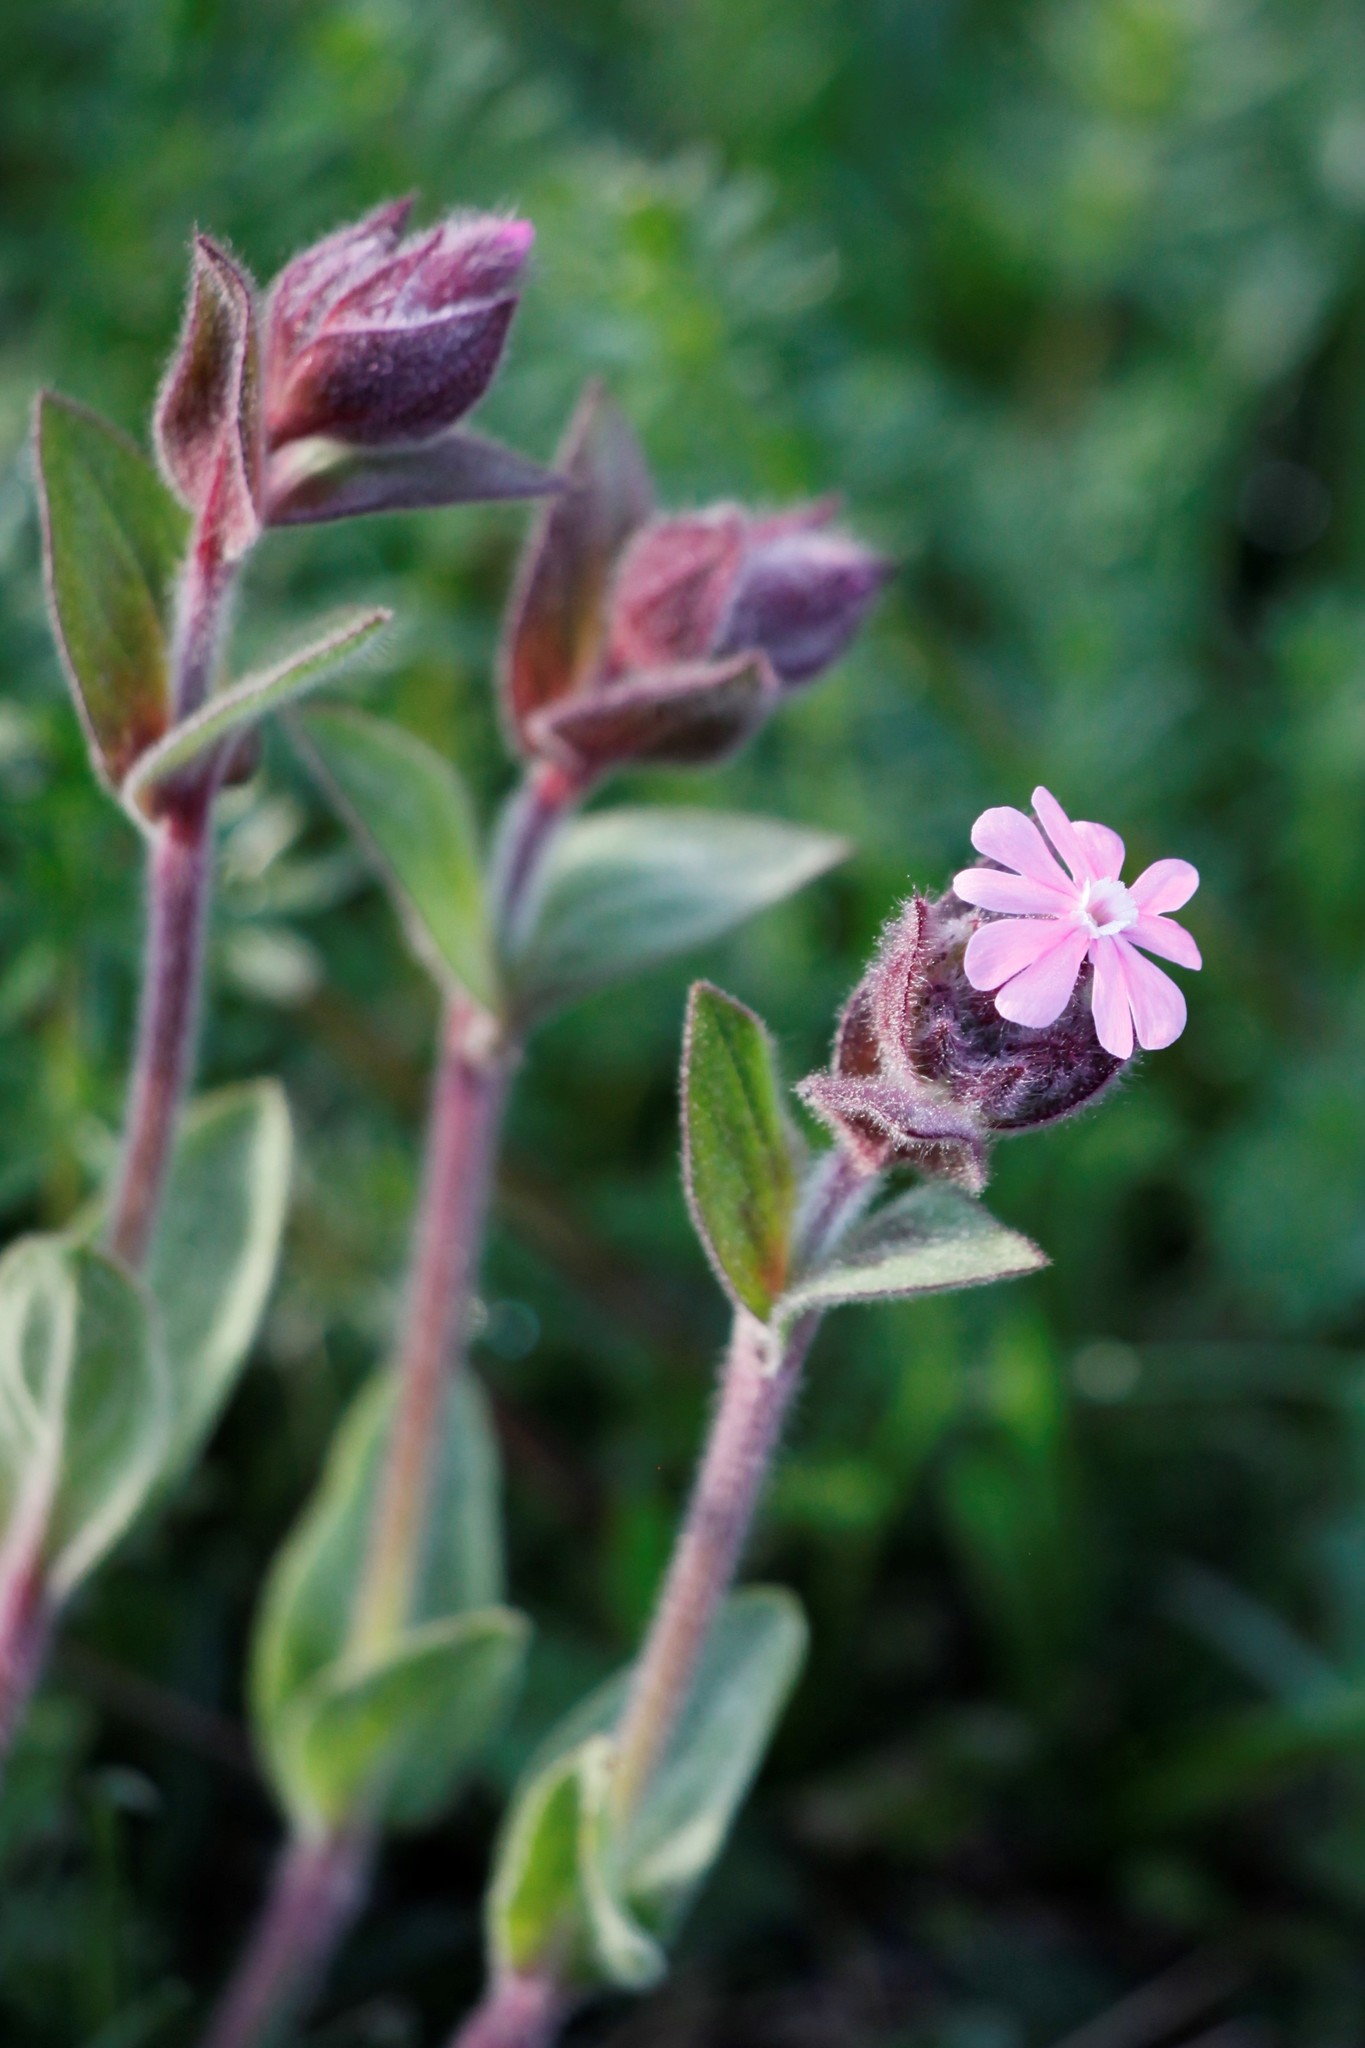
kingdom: Plantae
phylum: Tracheophyta
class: Magnoliopsida
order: Caryophyllales
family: Caryophyllaceae
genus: Silene
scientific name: Silene dioica
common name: Red campion
